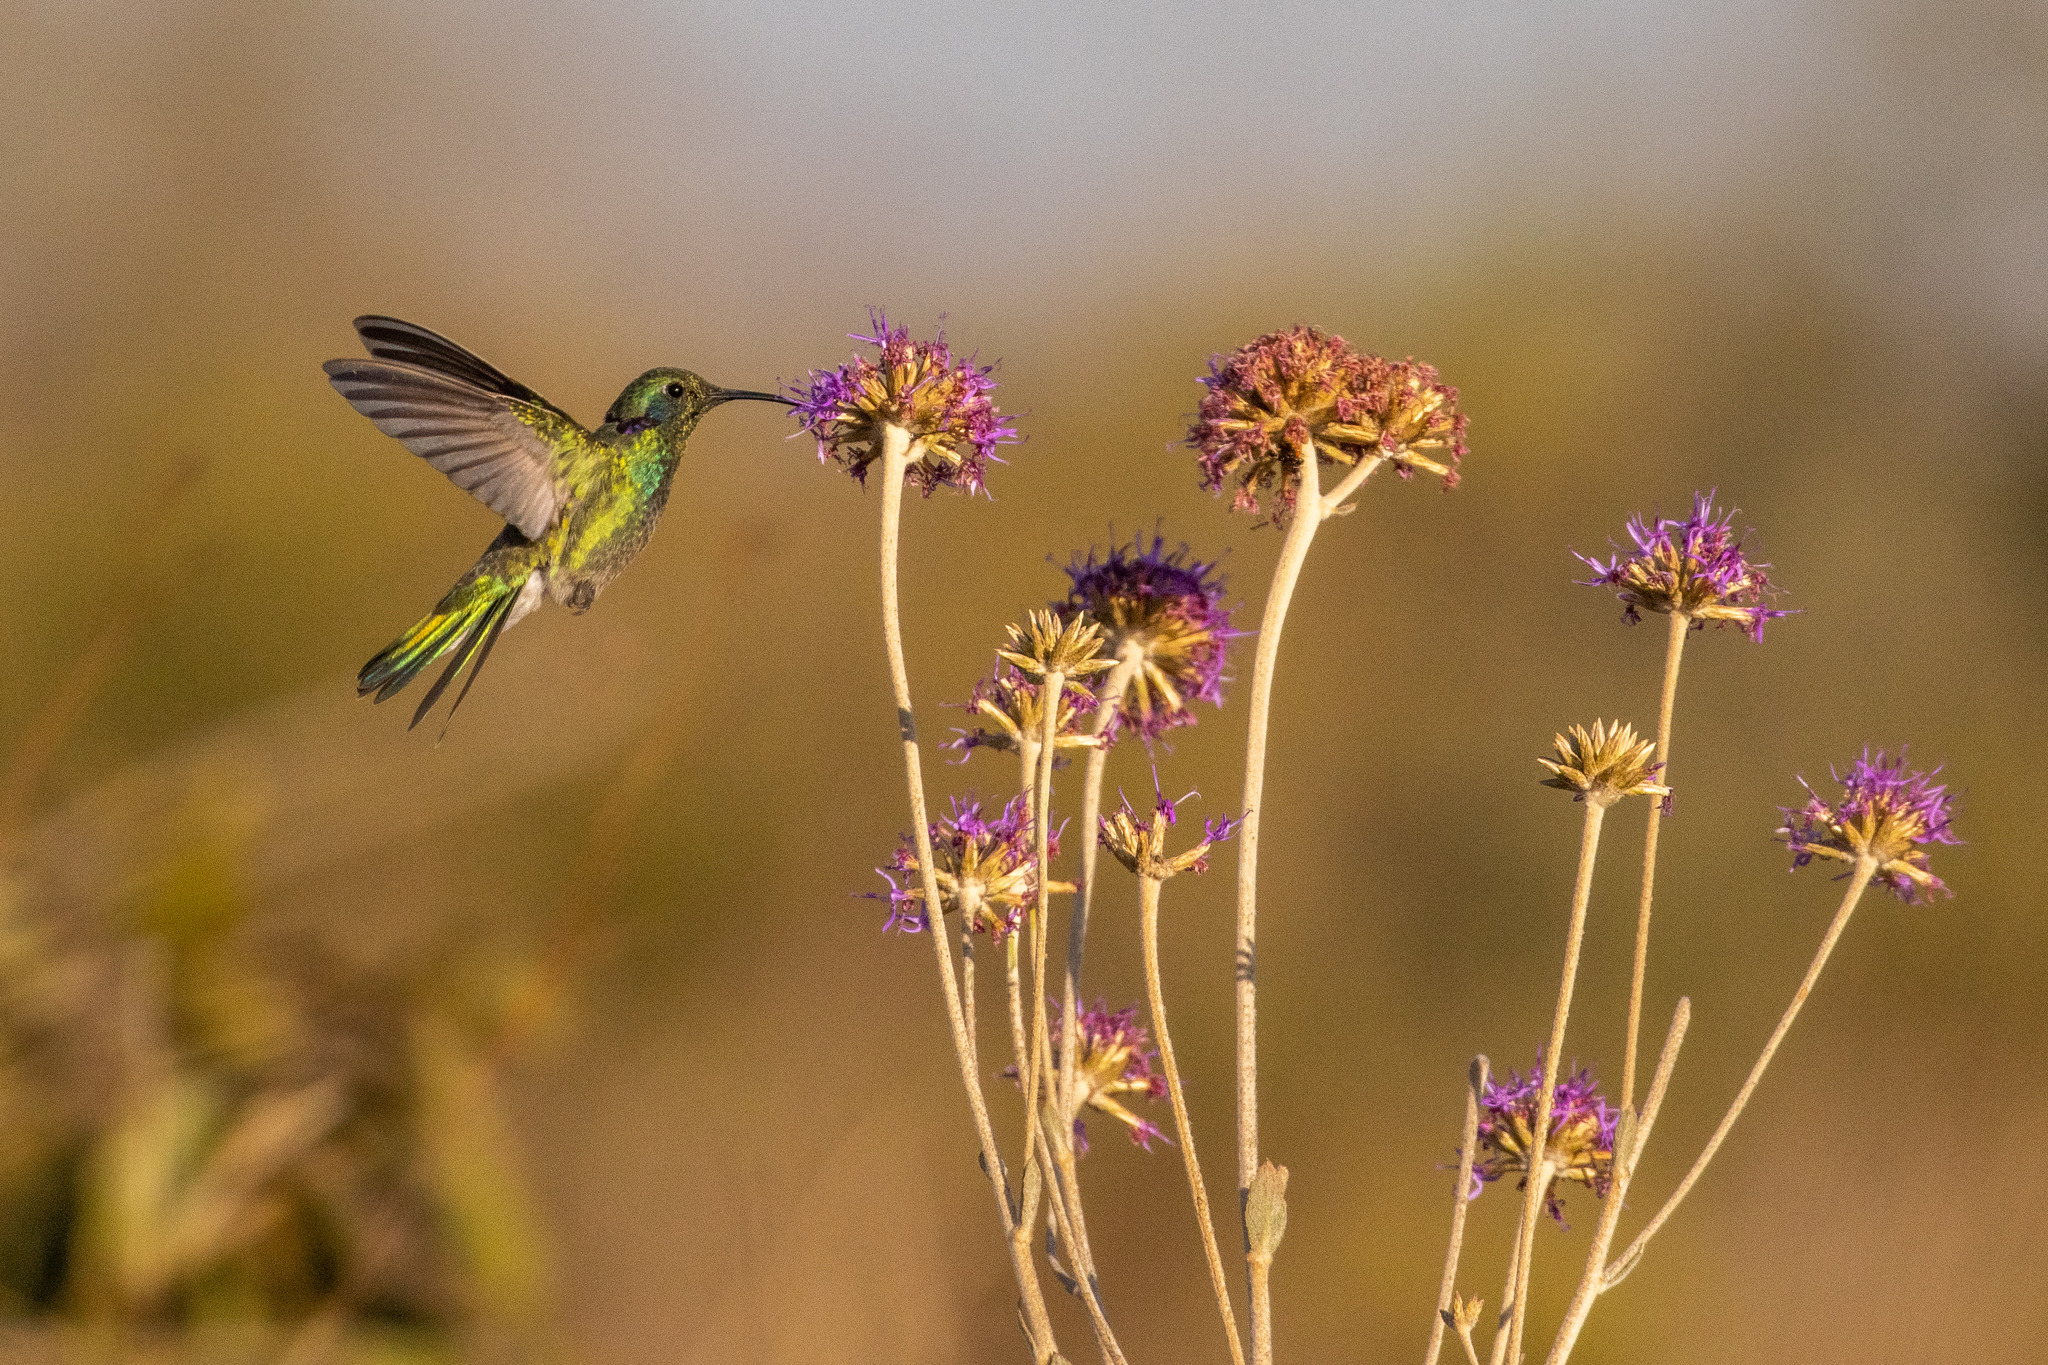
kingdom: Animalia
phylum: Chordata
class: Aves
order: Apodiformes
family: Trochilidae
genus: Colibri
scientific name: Colibri serrirostris
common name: White-vented violetear
